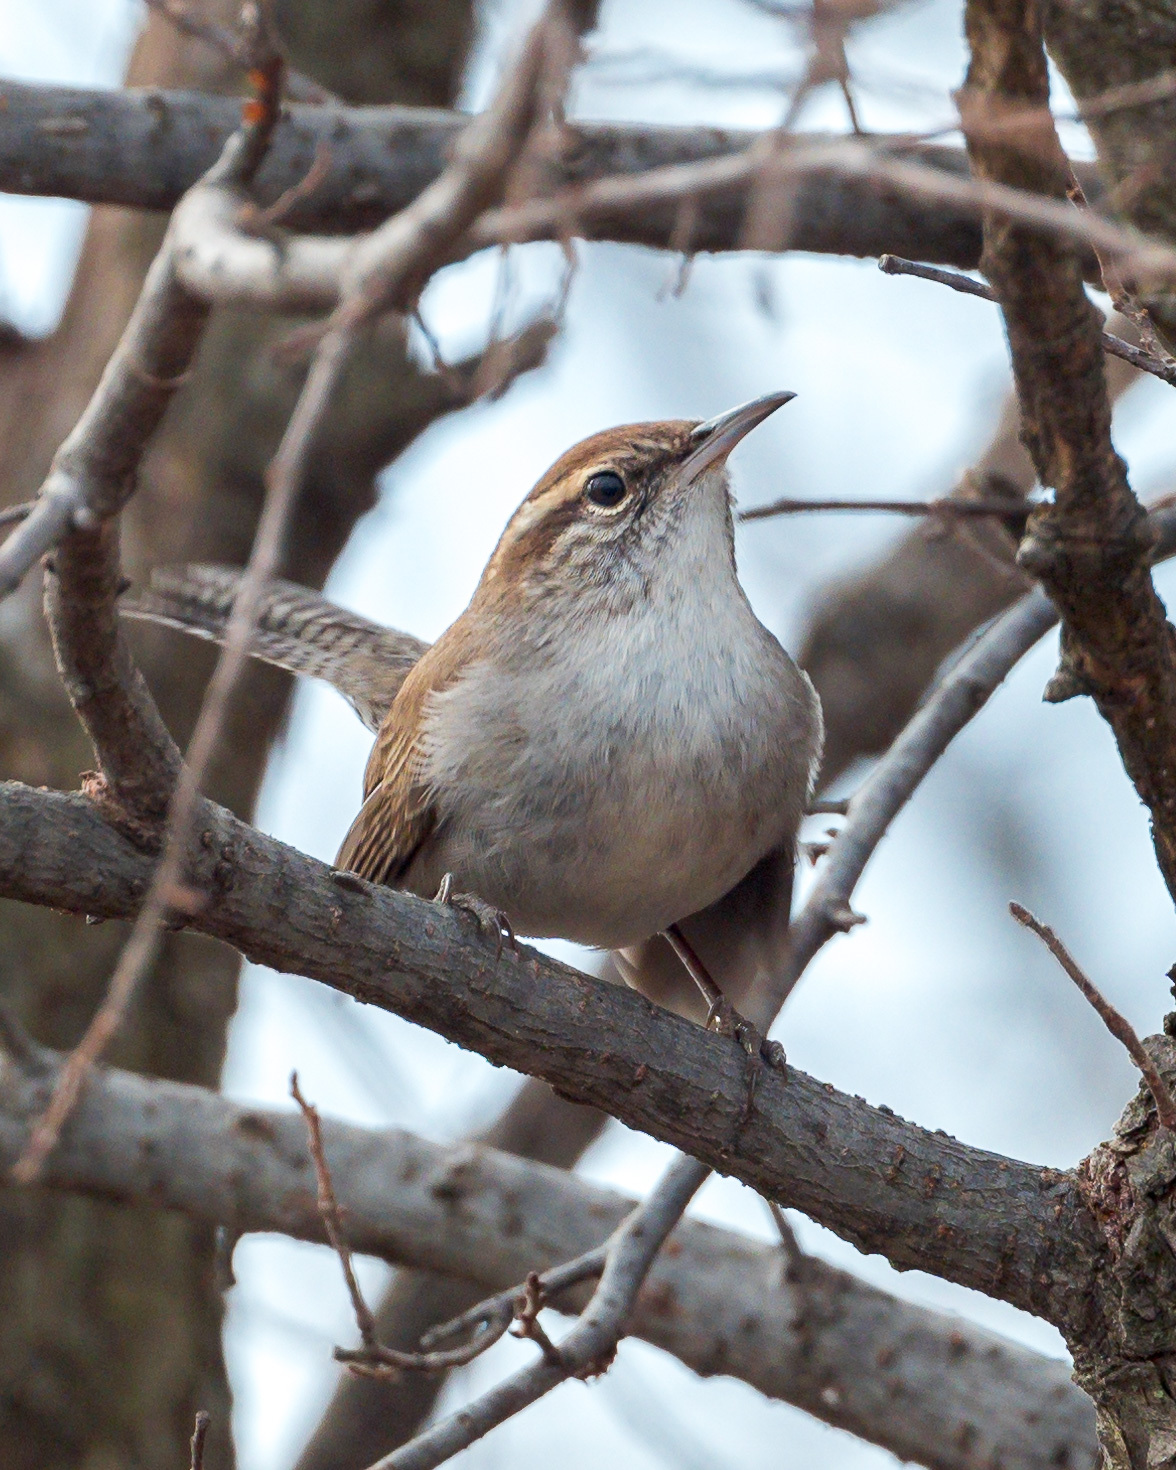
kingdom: Animalia
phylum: Chordata
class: Aves
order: Passeriformes
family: Troglodytidae
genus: Thryomanes
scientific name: Thryomanes bewickii
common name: Bewick's wren
